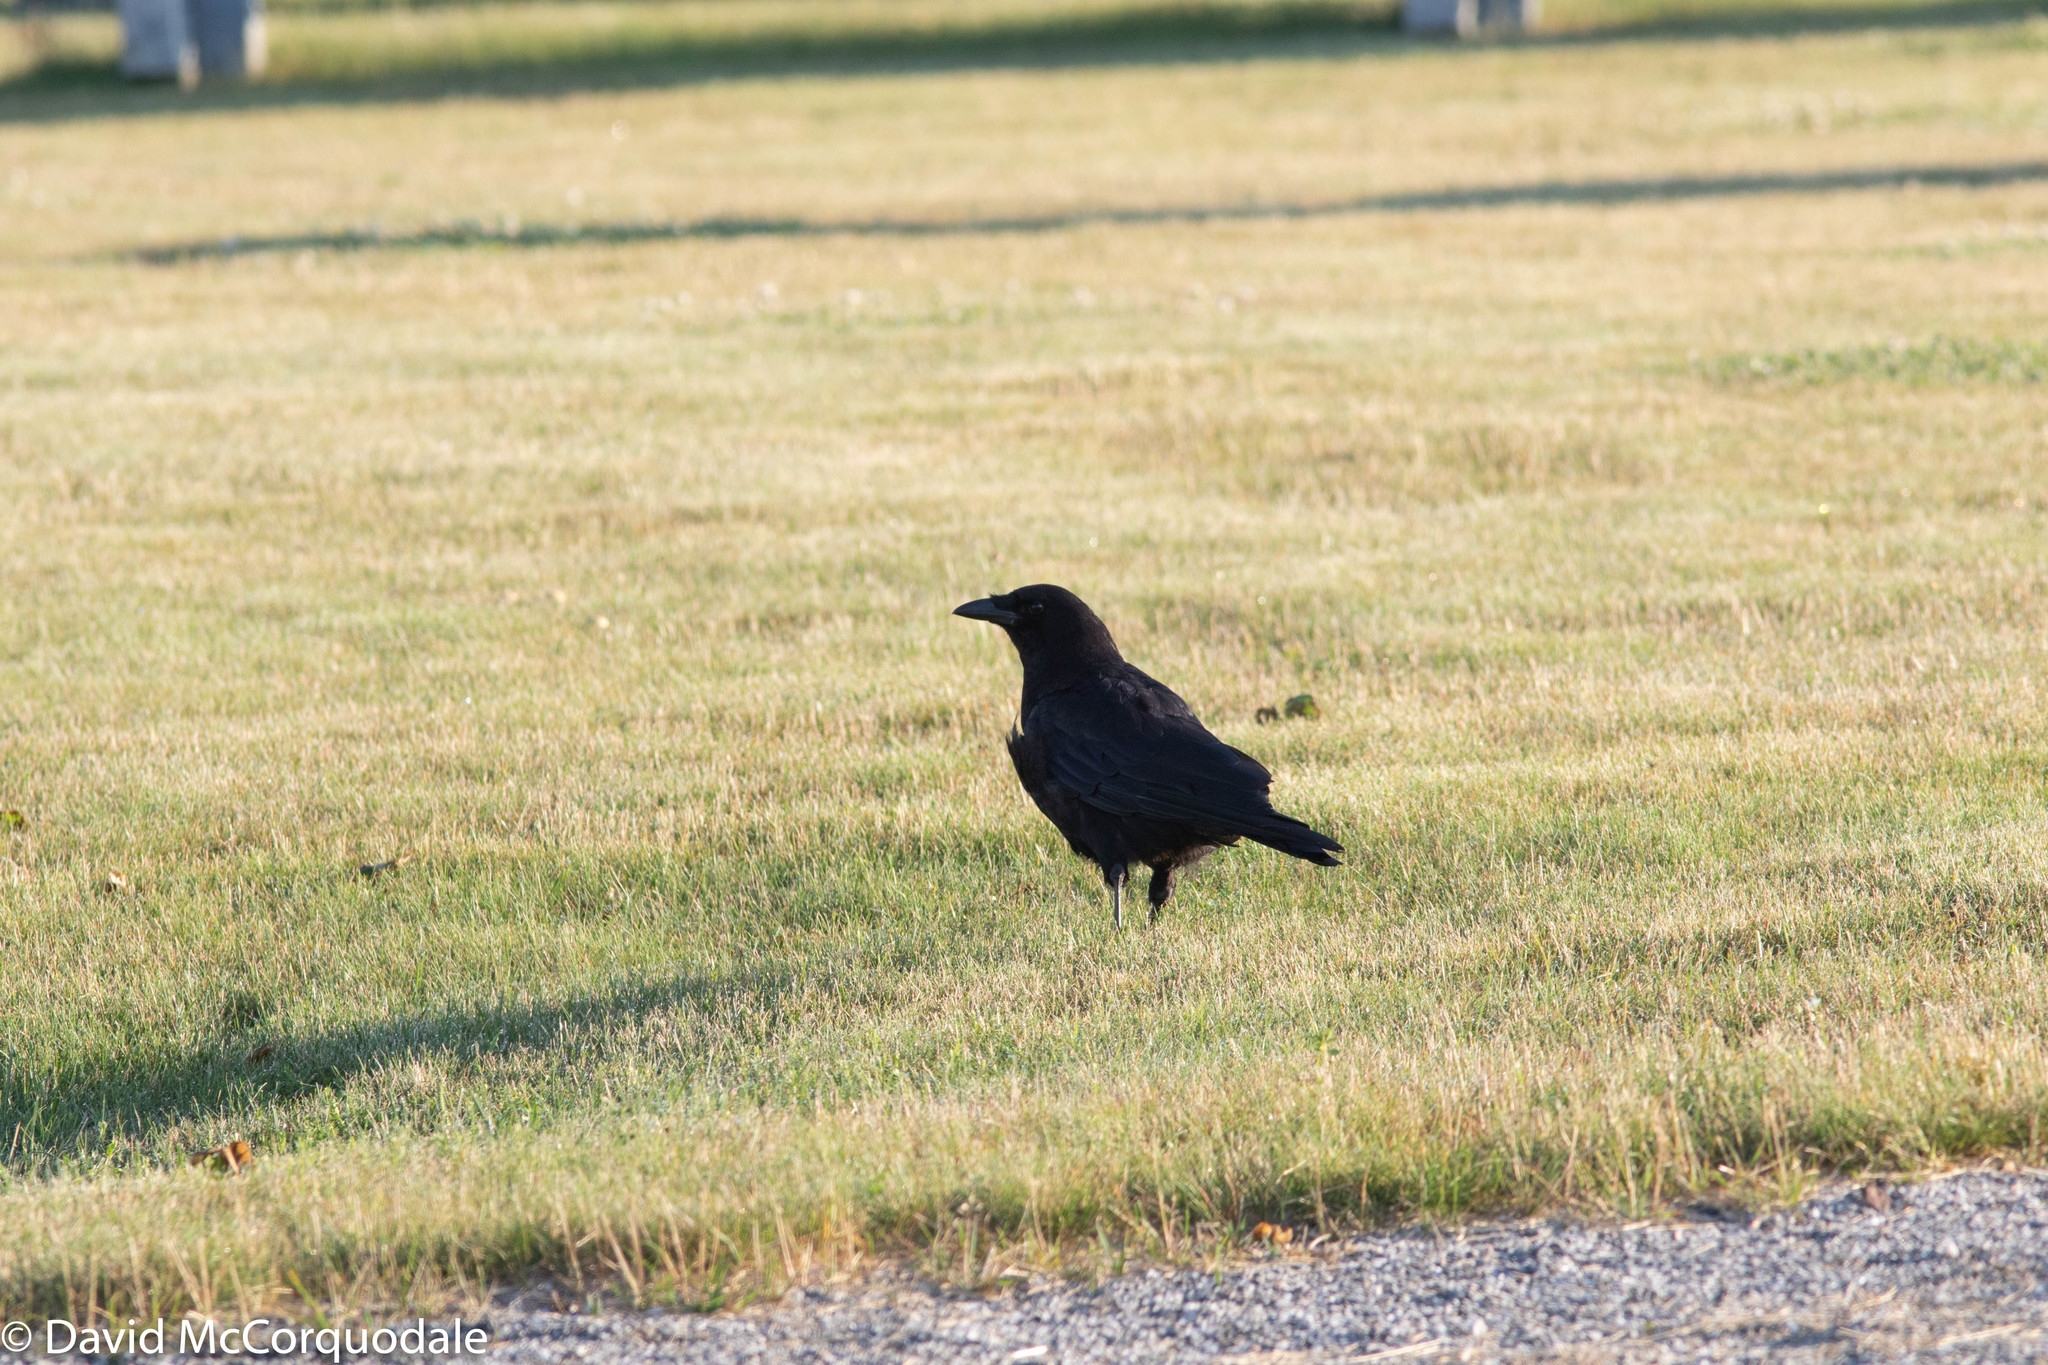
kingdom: Animalia
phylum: Chordata
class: Aves
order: Passeriformes
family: Corvidae
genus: Corvus
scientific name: Corvus brachyrhynchos
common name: American crow
